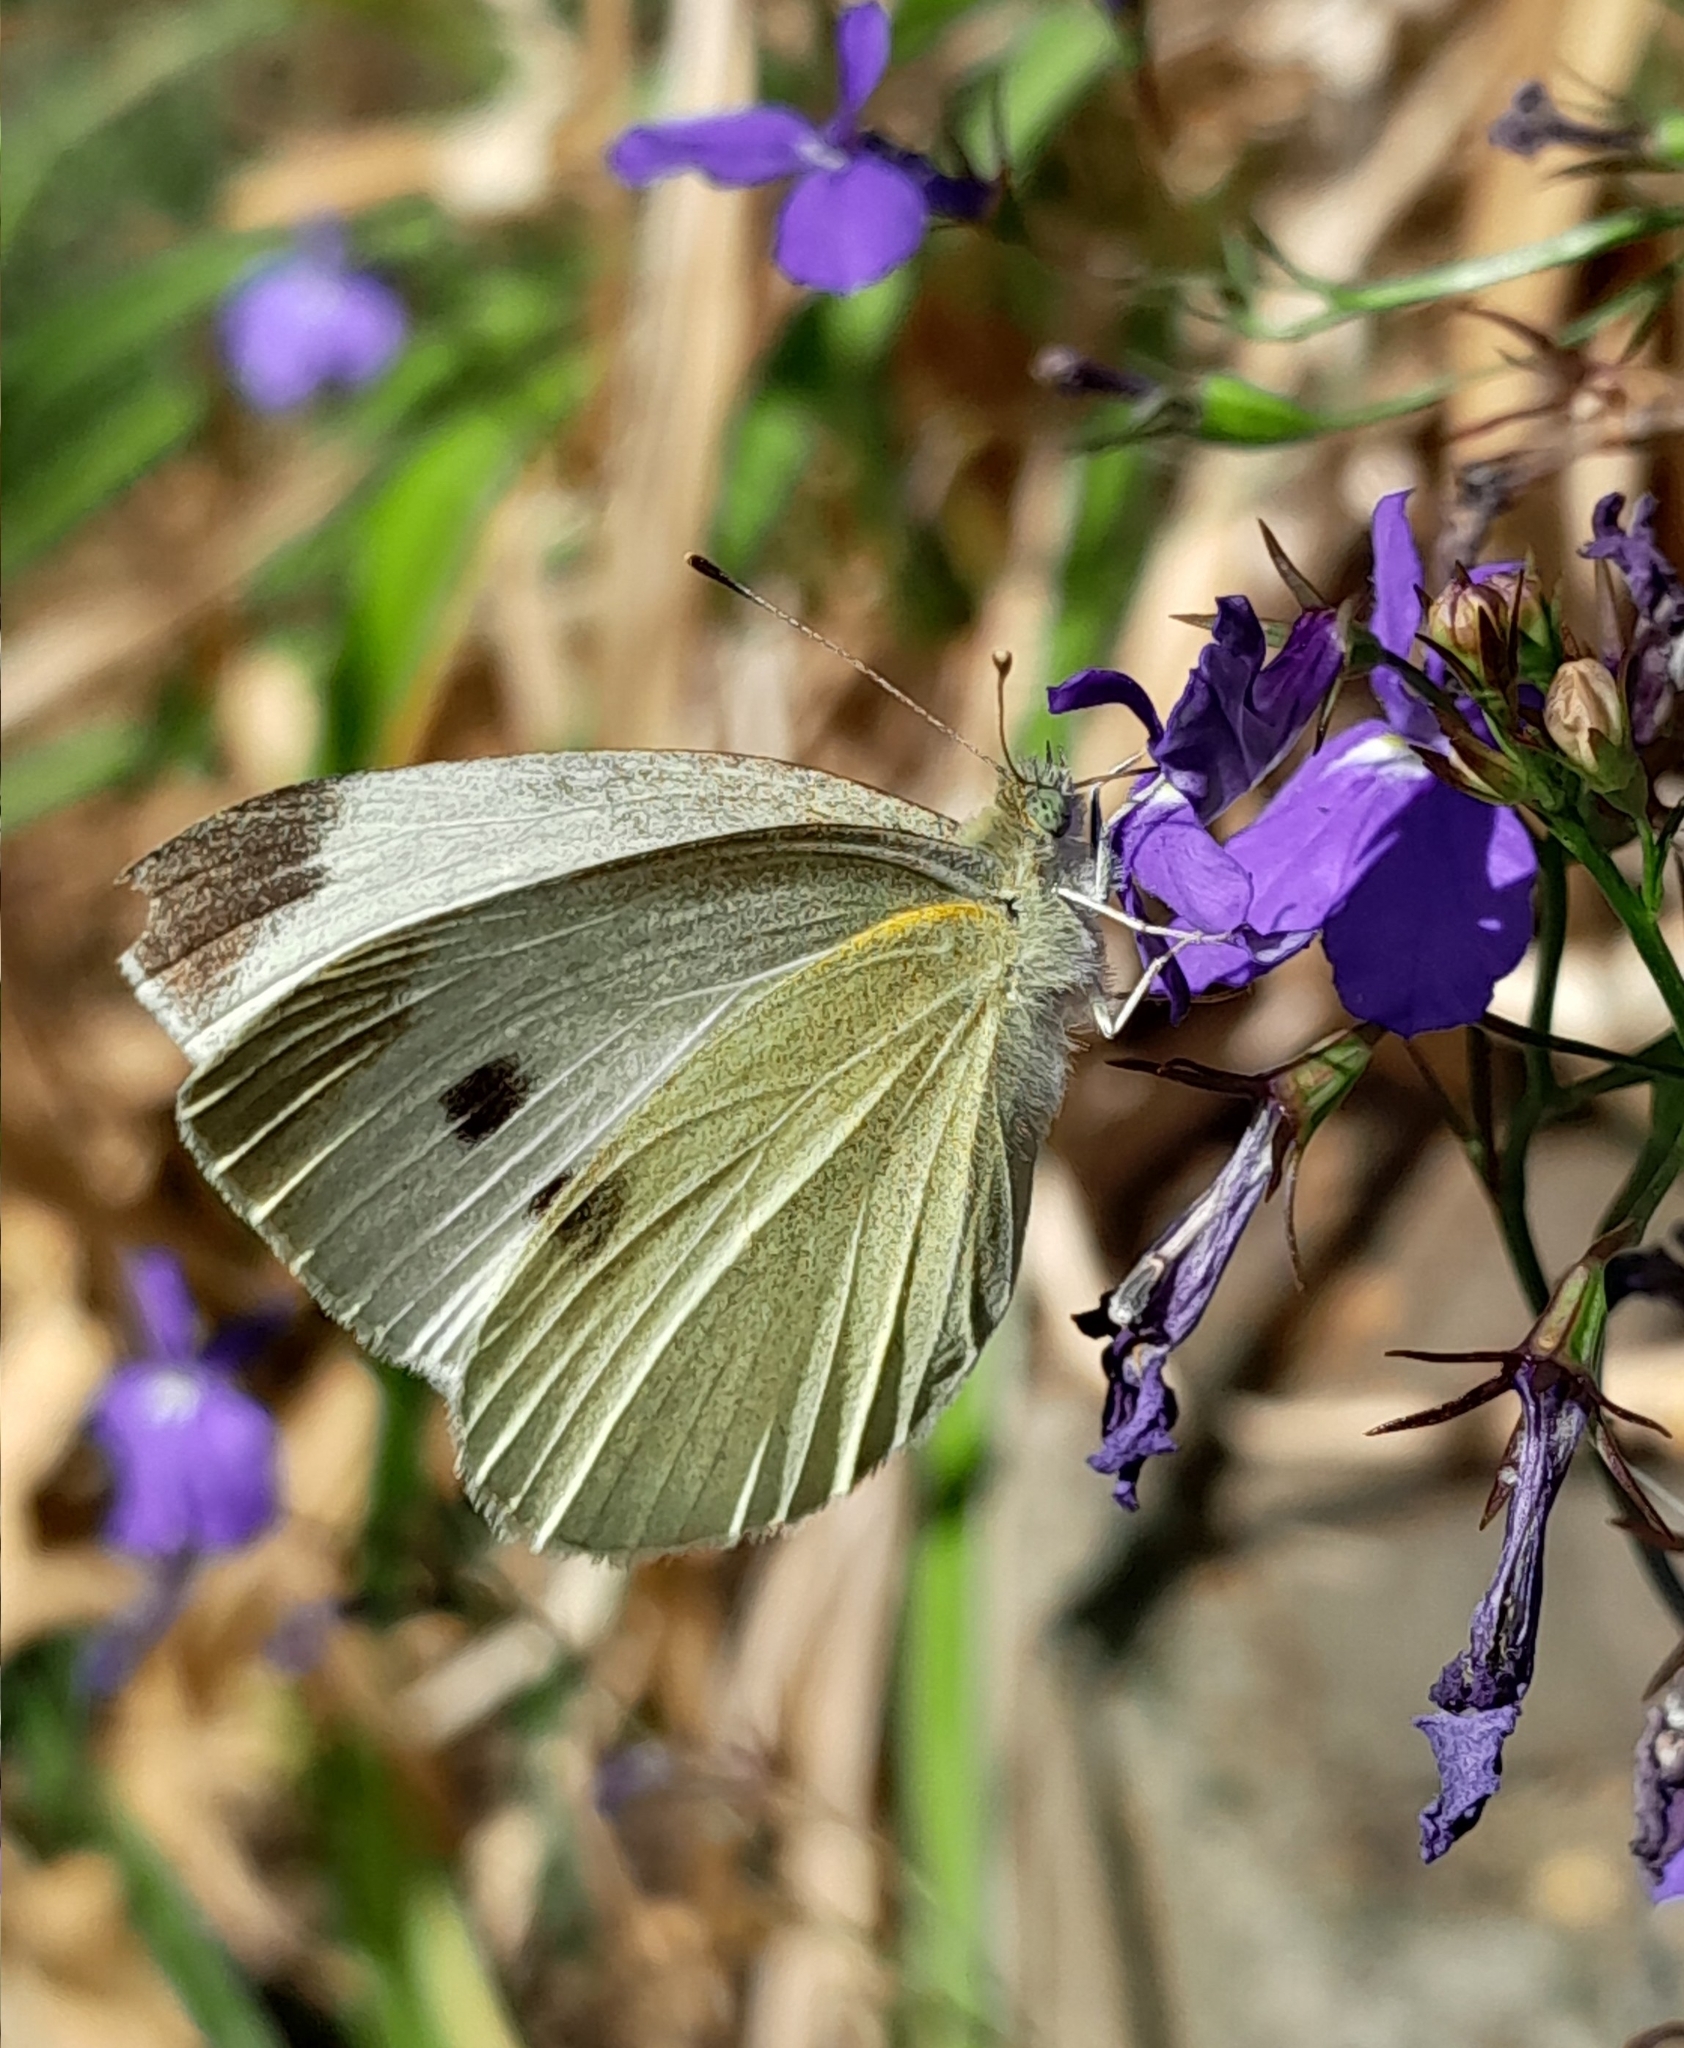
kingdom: Animalia
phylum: Arthropoda
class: Insecta
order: Lepidoptera
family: Pieridae
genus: Pieris
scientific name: Pieris rapae
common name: Small white
